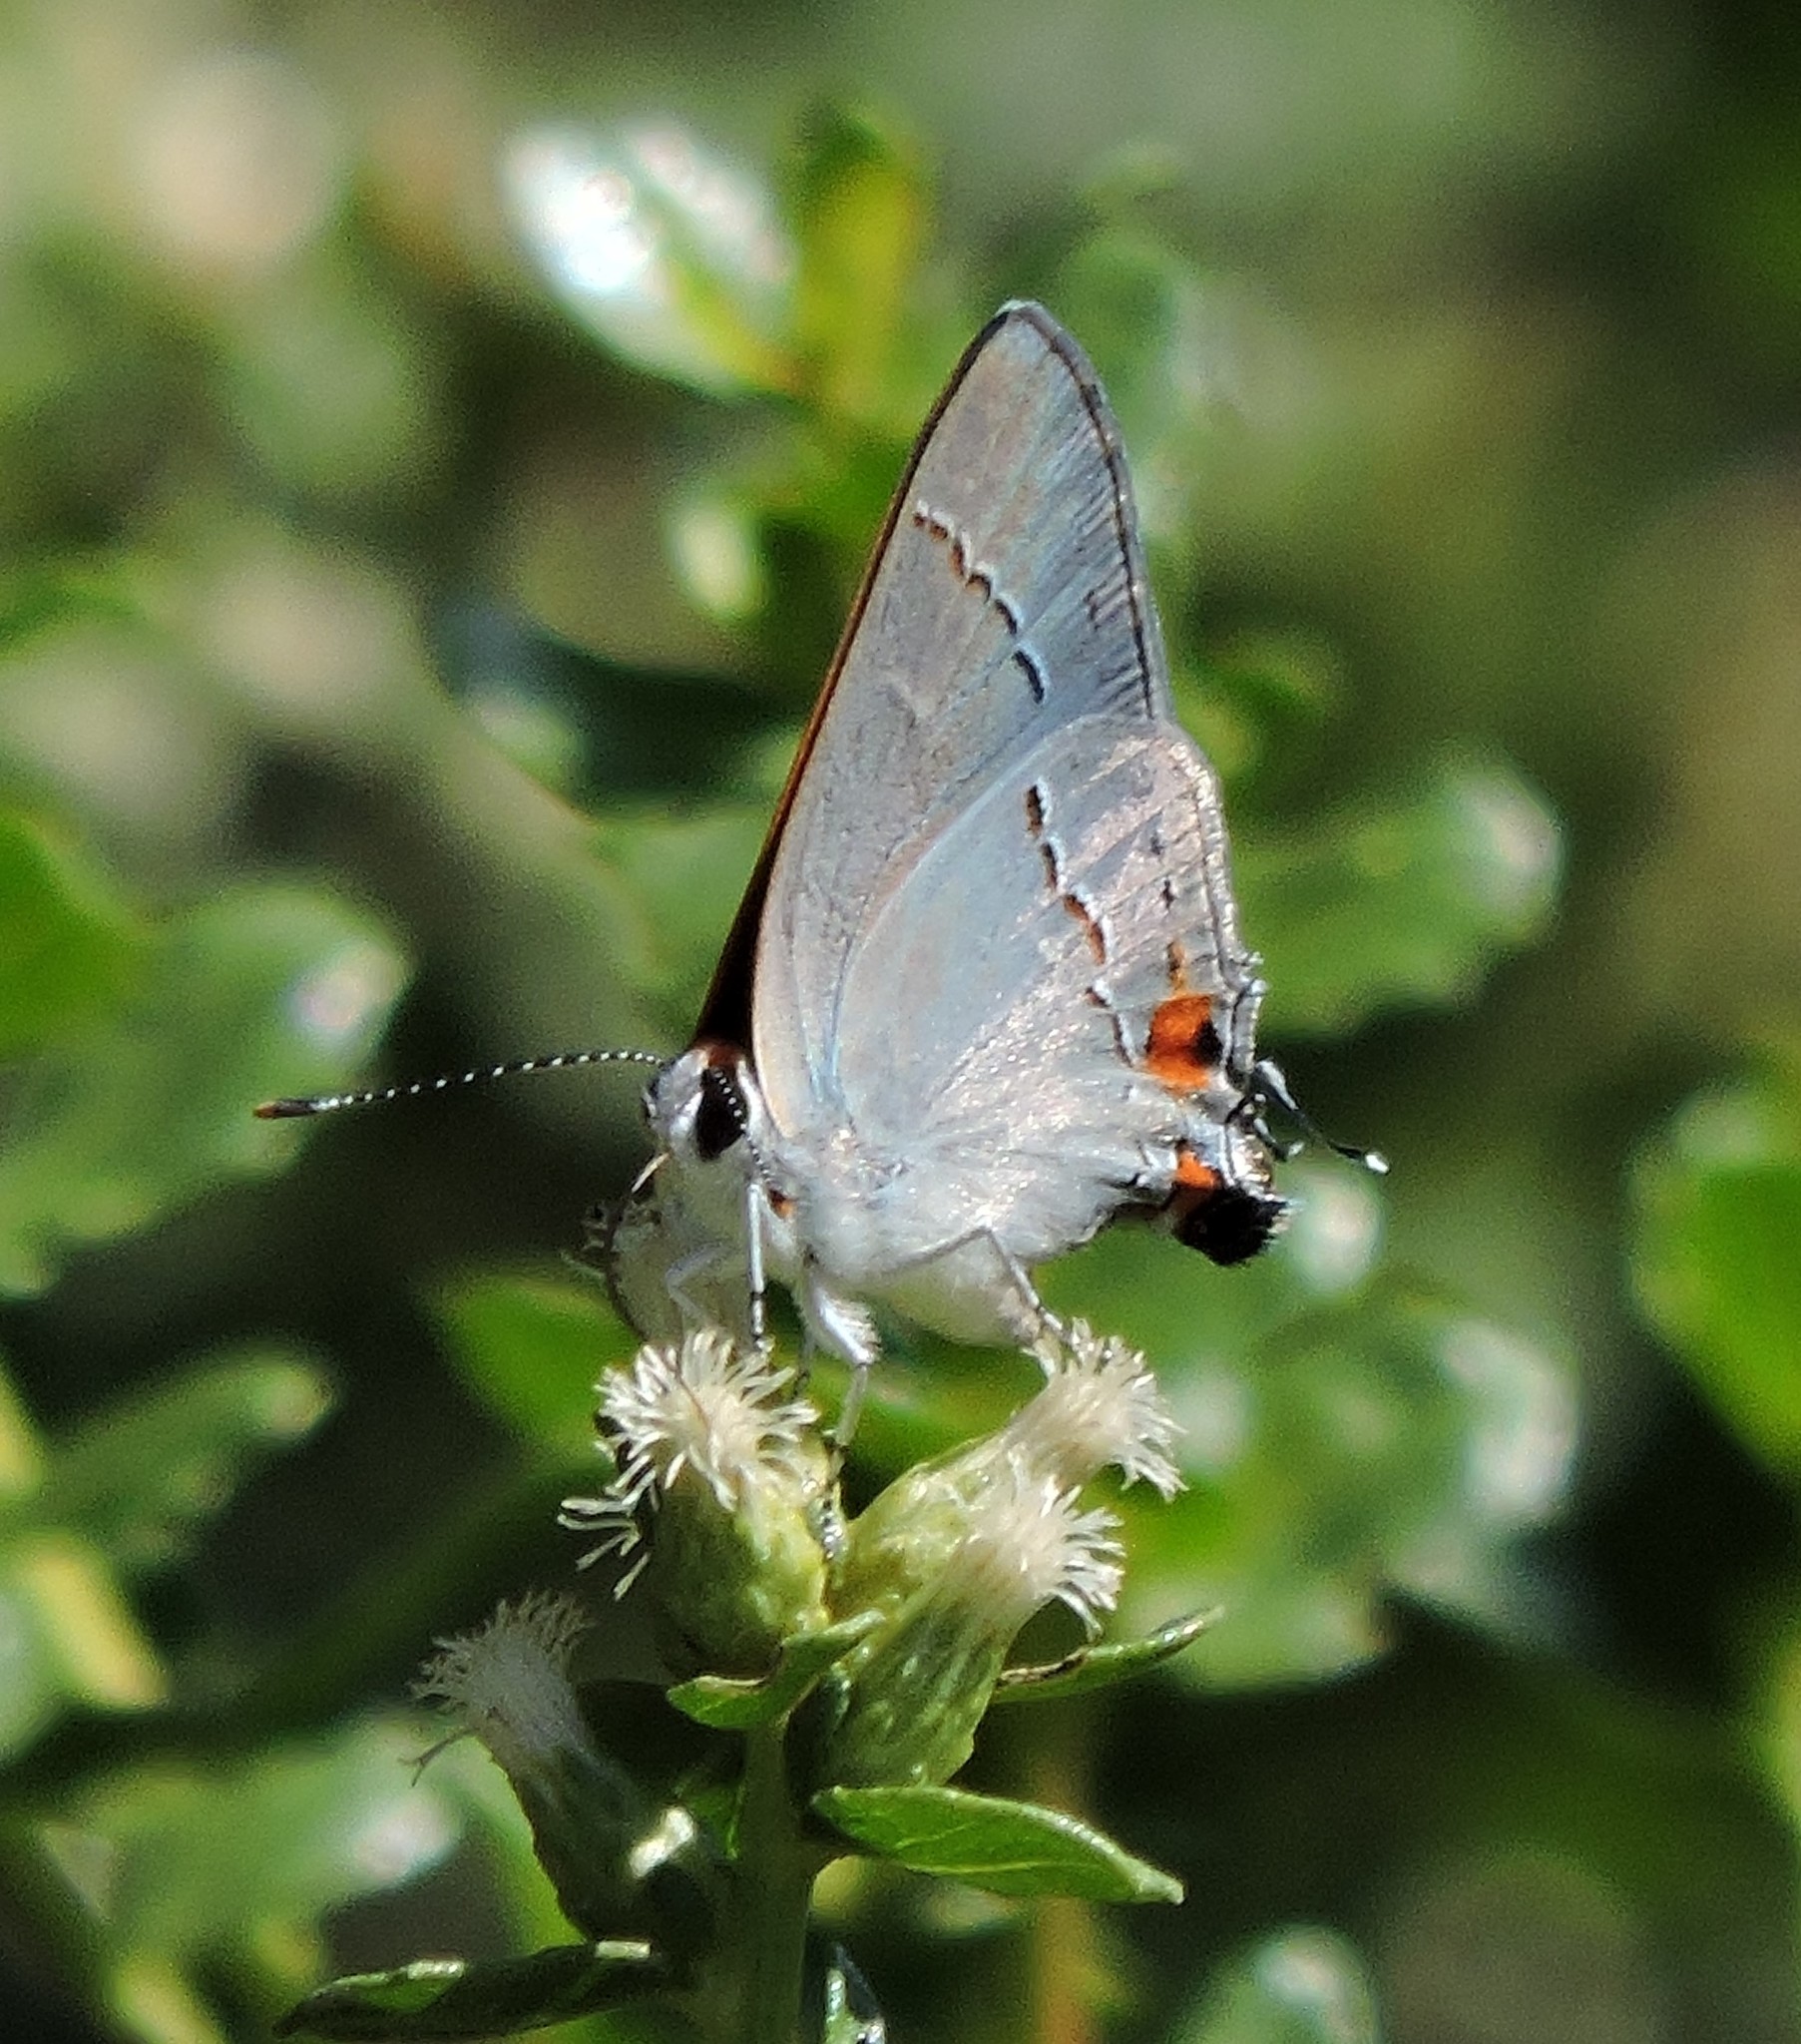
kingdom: Animalia
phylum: Arthropoda
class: Insecta
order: Lepidoptera
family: Lycaenidae
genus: Strymon
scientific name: Strymon melinus
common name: Gray hairstreak
